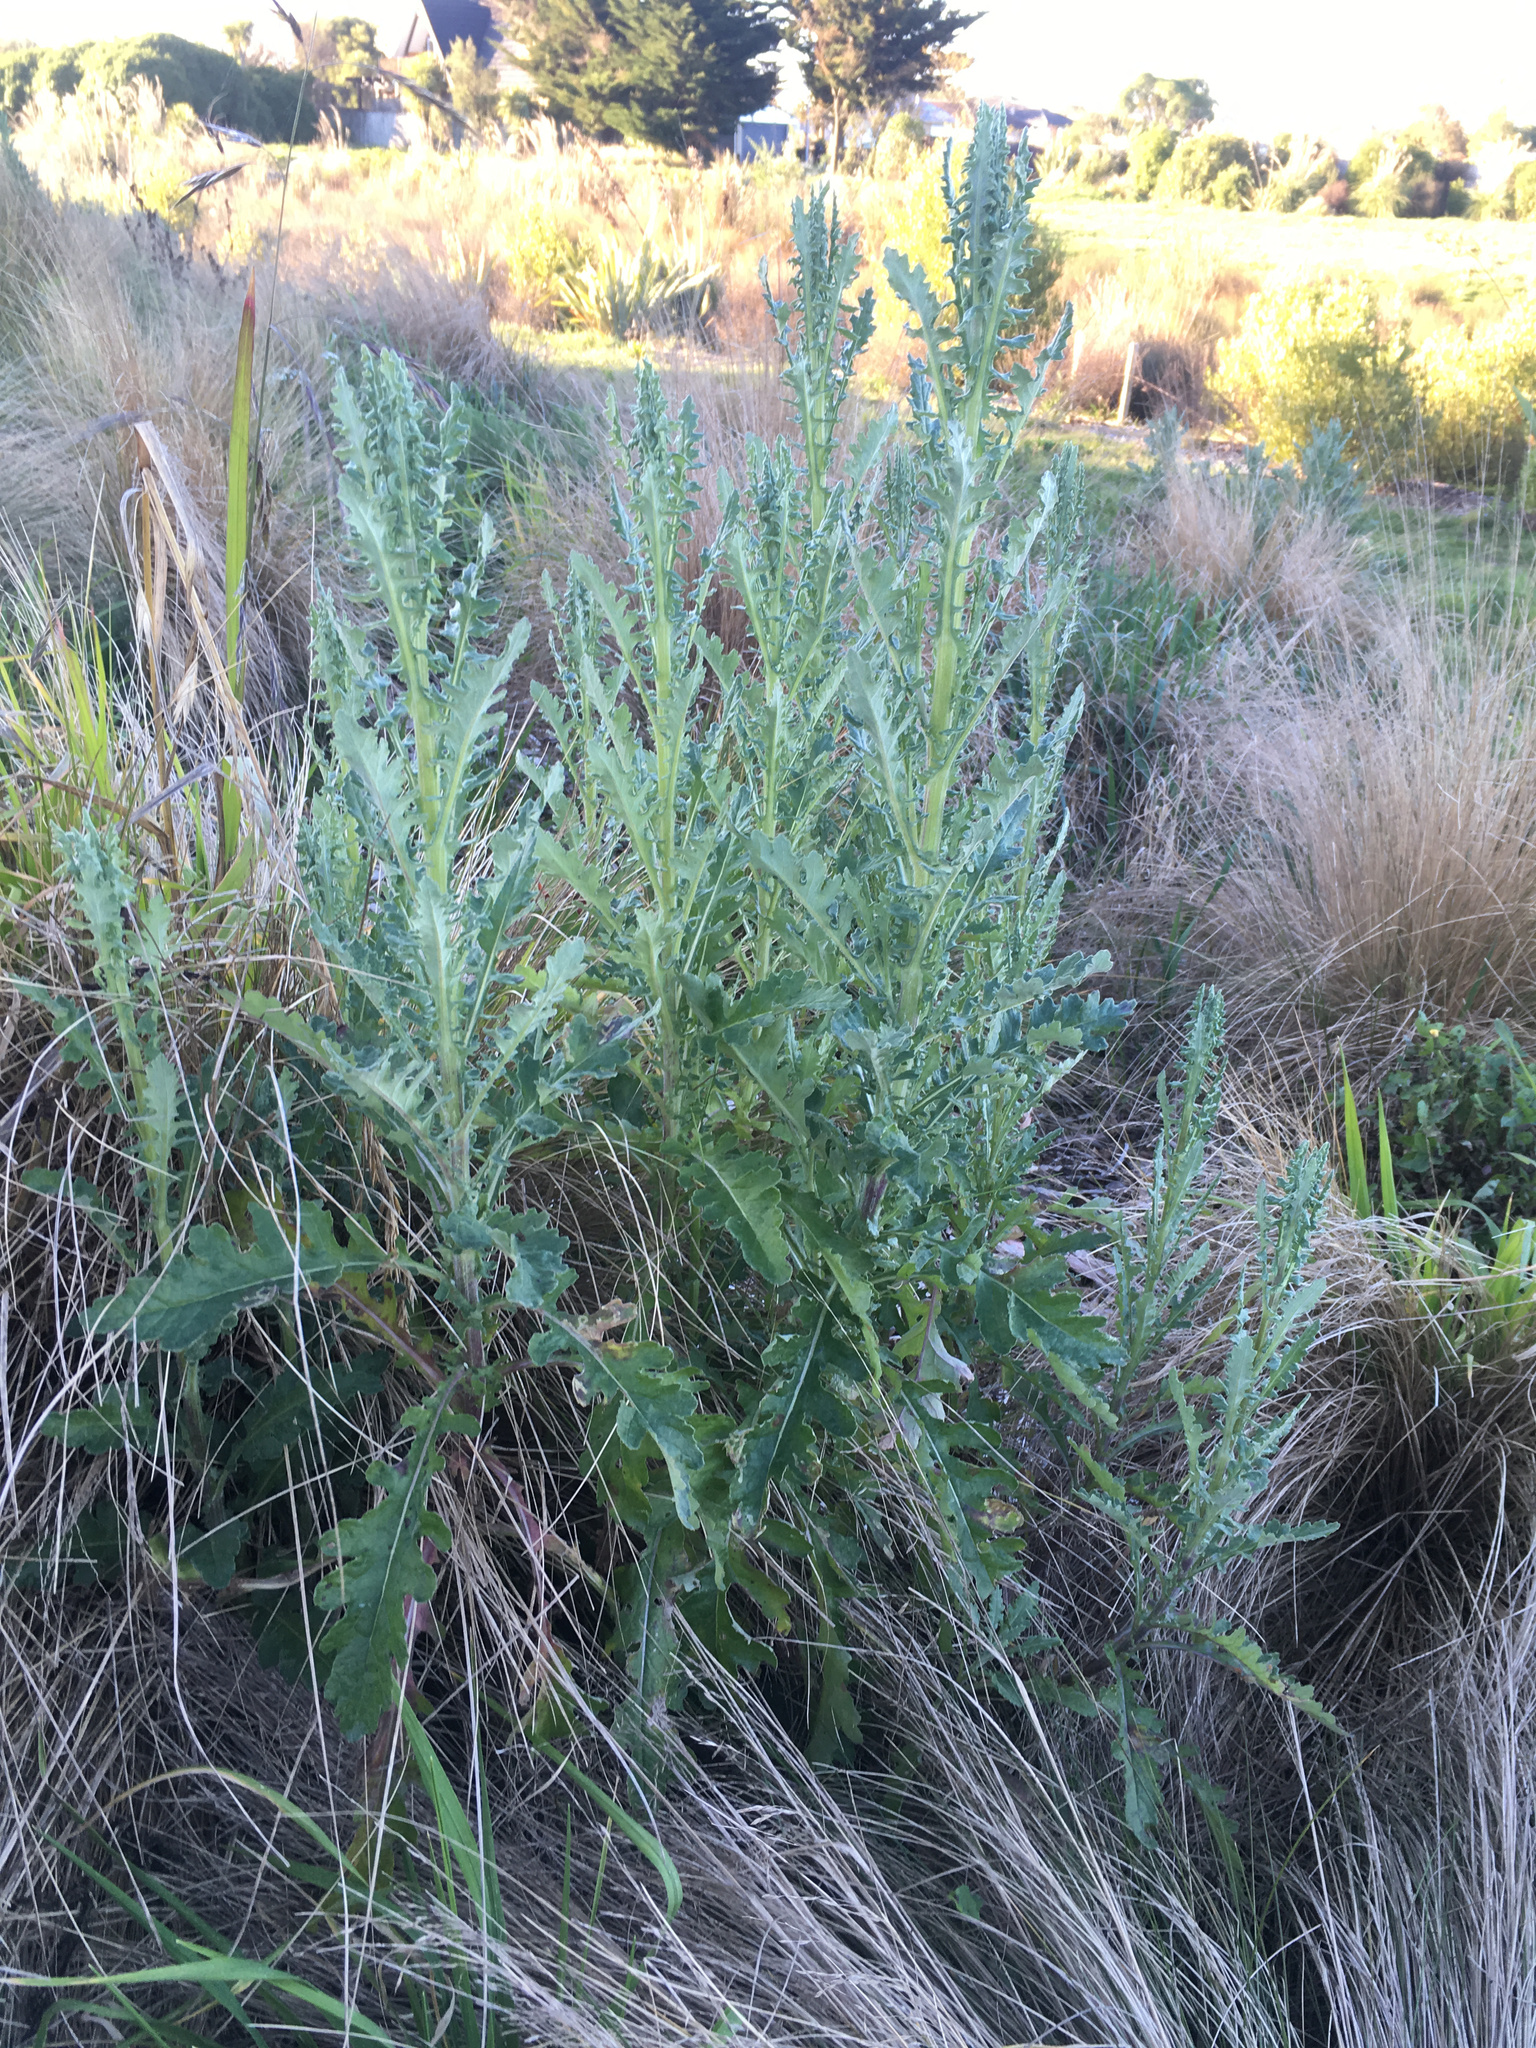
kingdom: Plantae
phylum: Tracheophyta
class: Magnoliopsida
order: Asterales
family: Asteraceae
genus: Senecio
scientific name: Senecio glomeratus
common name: Cutleaf burnweed
